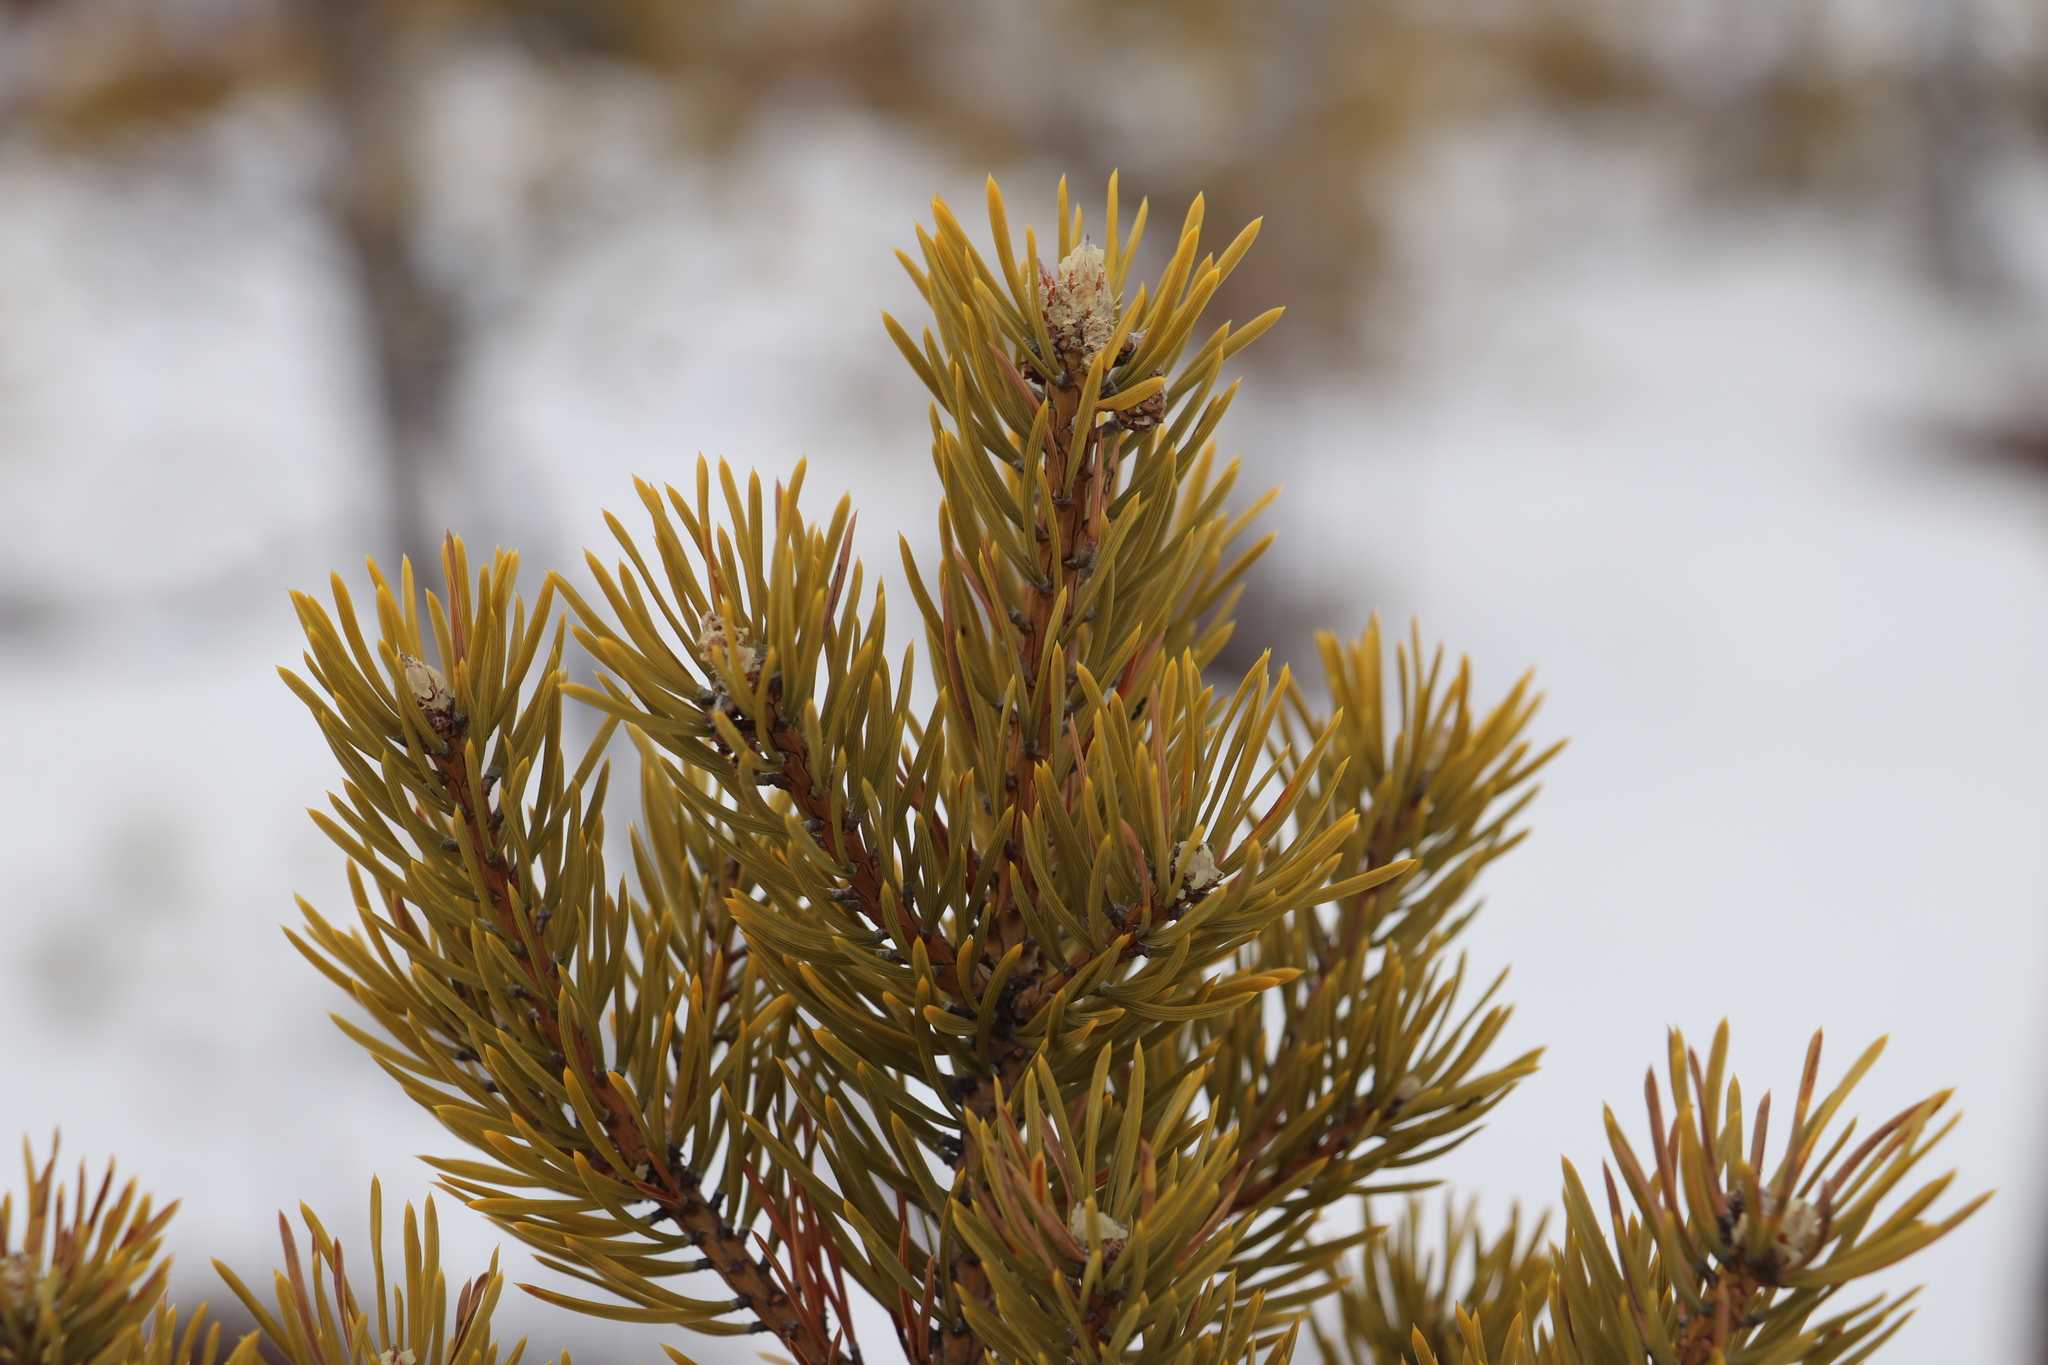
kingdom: Plantae
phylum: Tracheophyta
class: Pinopsida
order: Pinales
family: Pinaceae
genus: Pinus
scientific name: Pinus sylvestris
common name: Scots pine
